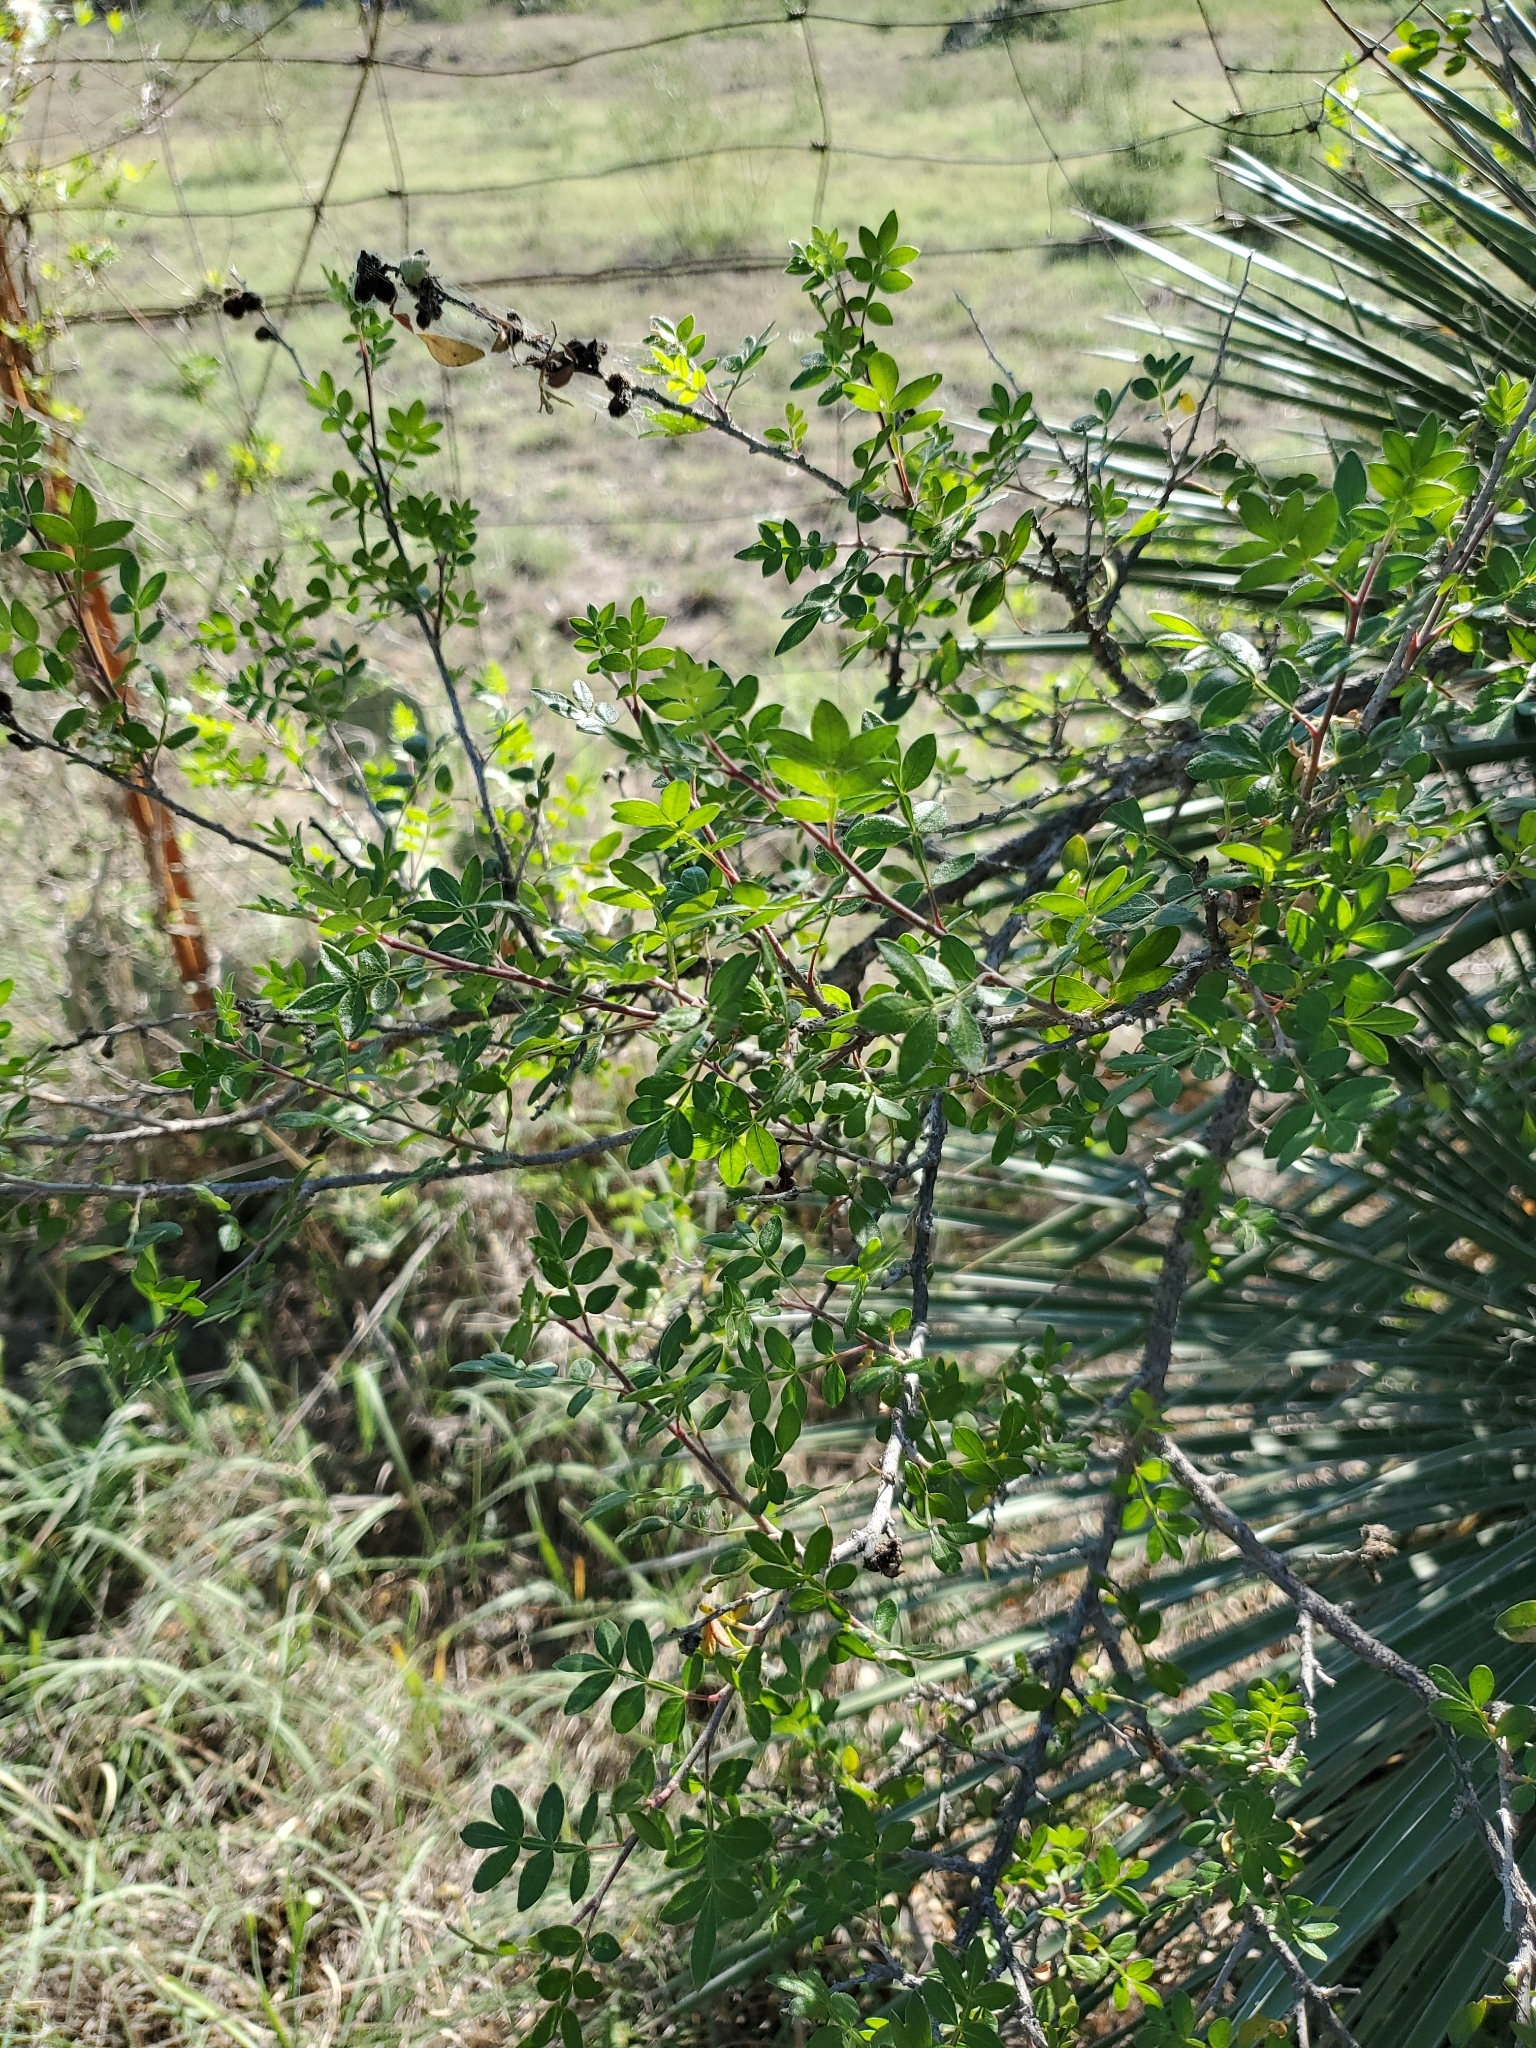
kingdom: Plantae
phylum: Tracheophyta
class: Magnoliopsida
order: Sapindales
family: Anacardiaceae
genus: Rhus
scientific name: Rhus microphylla
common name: Desert sumac
